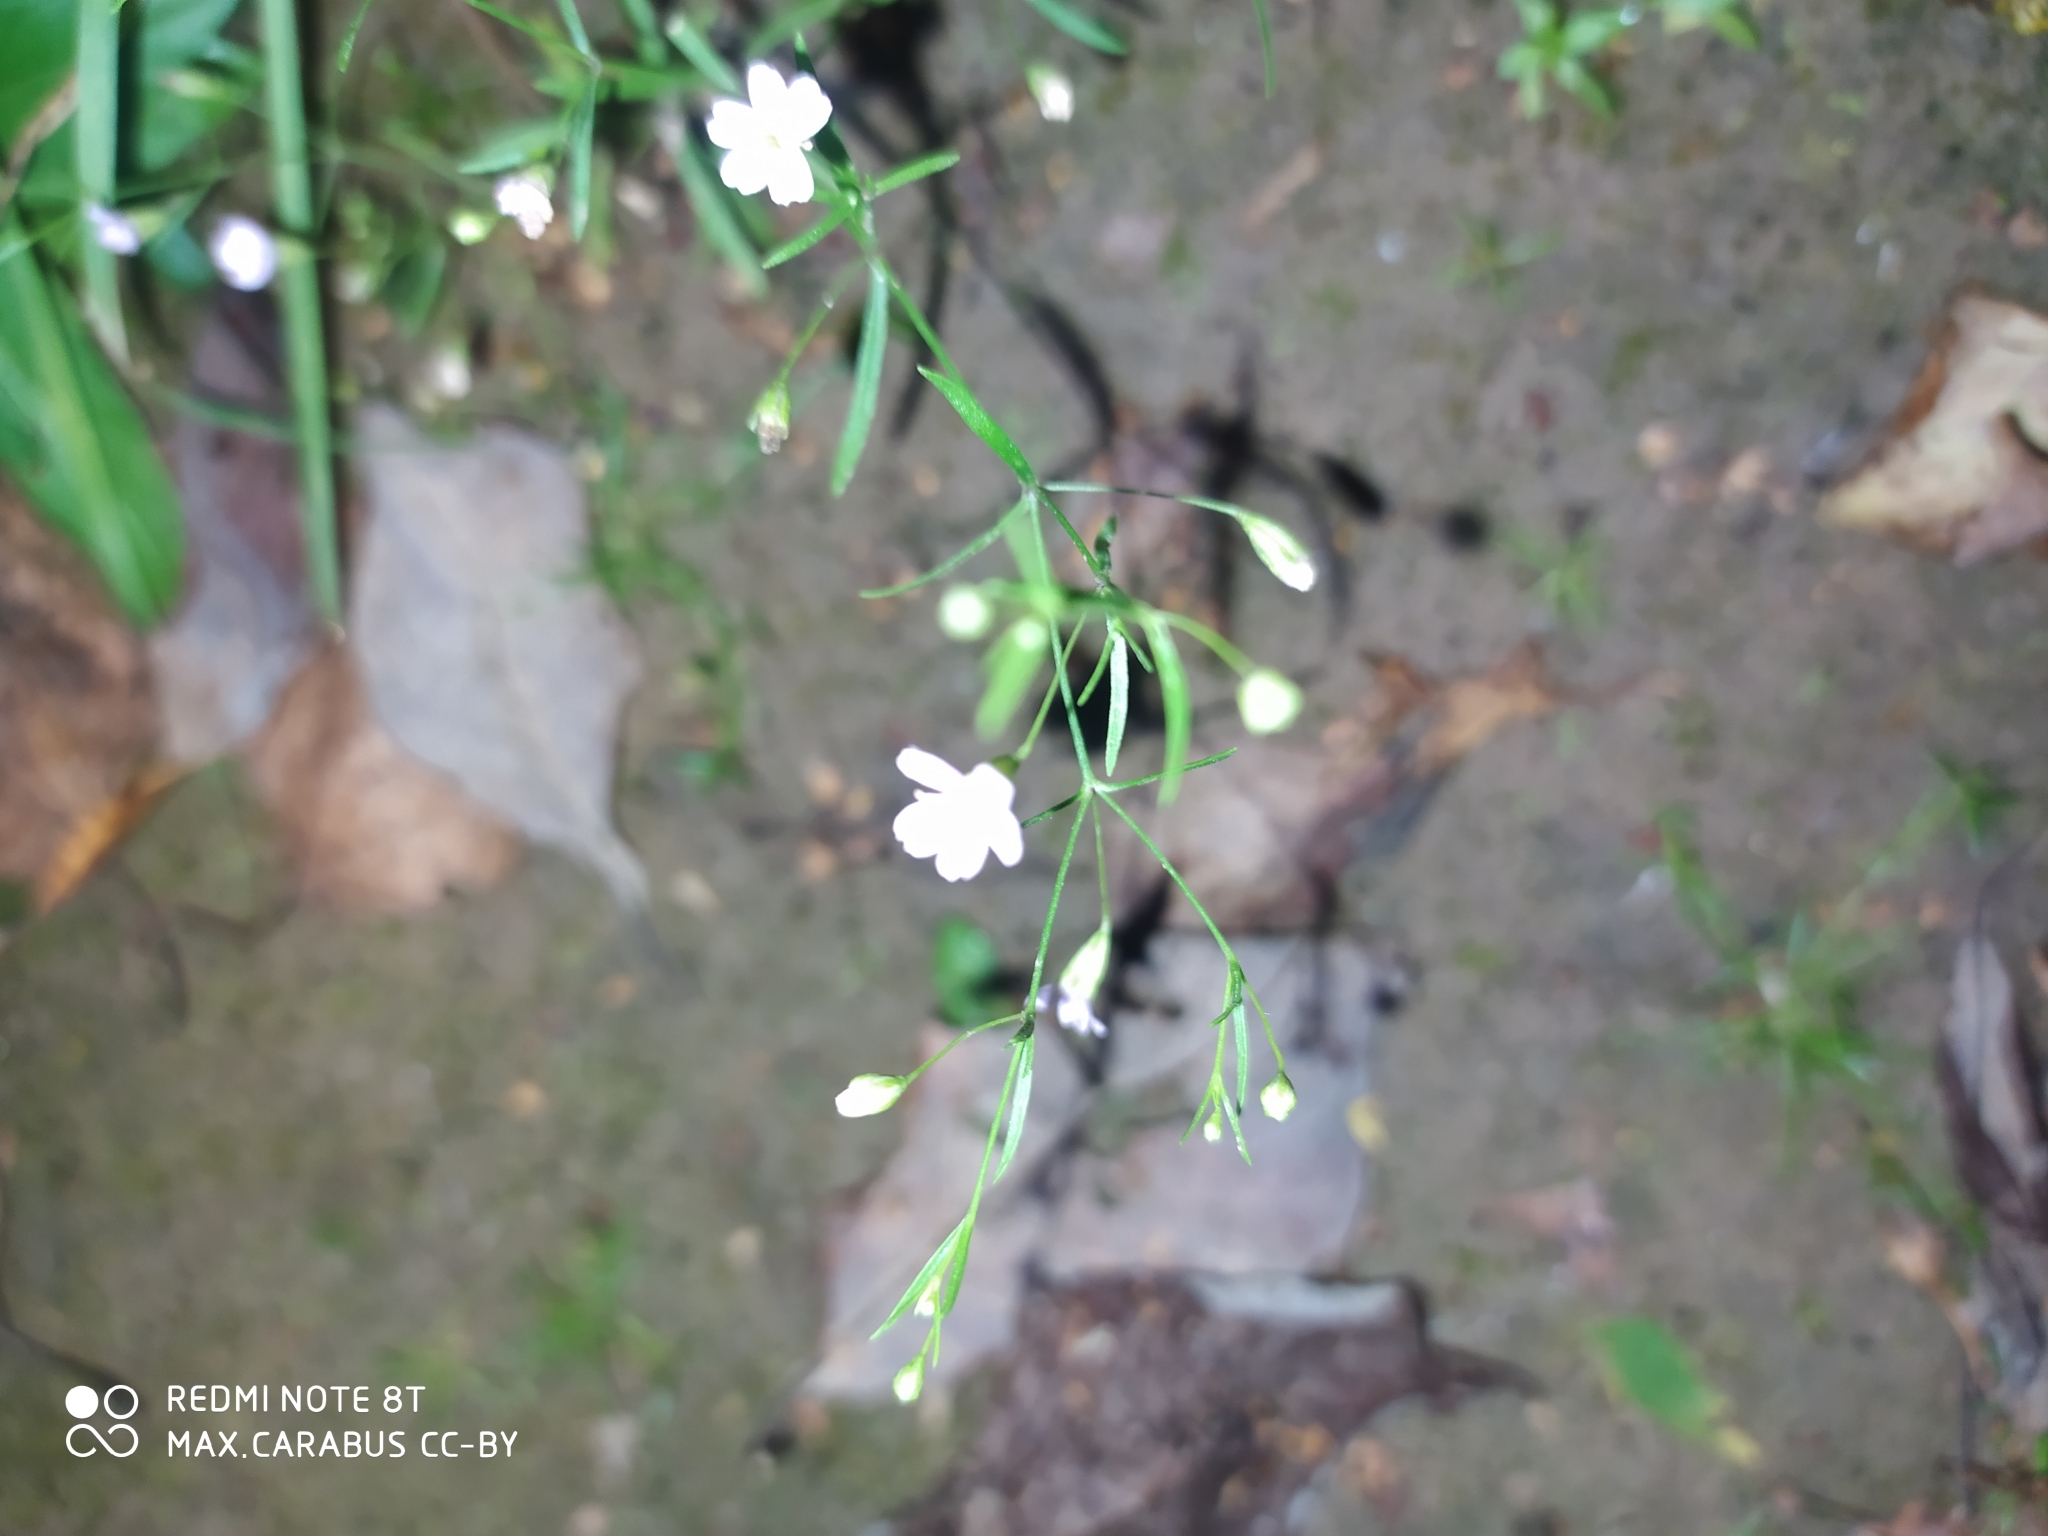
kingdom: Plantae
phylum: Tracheophyta
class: Magnoliopsida
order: Caryophyllales
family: Caryophyllaceae
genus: Psammophiliella
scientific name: Psammophiliella muralis
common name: Cushion baby's-breath
